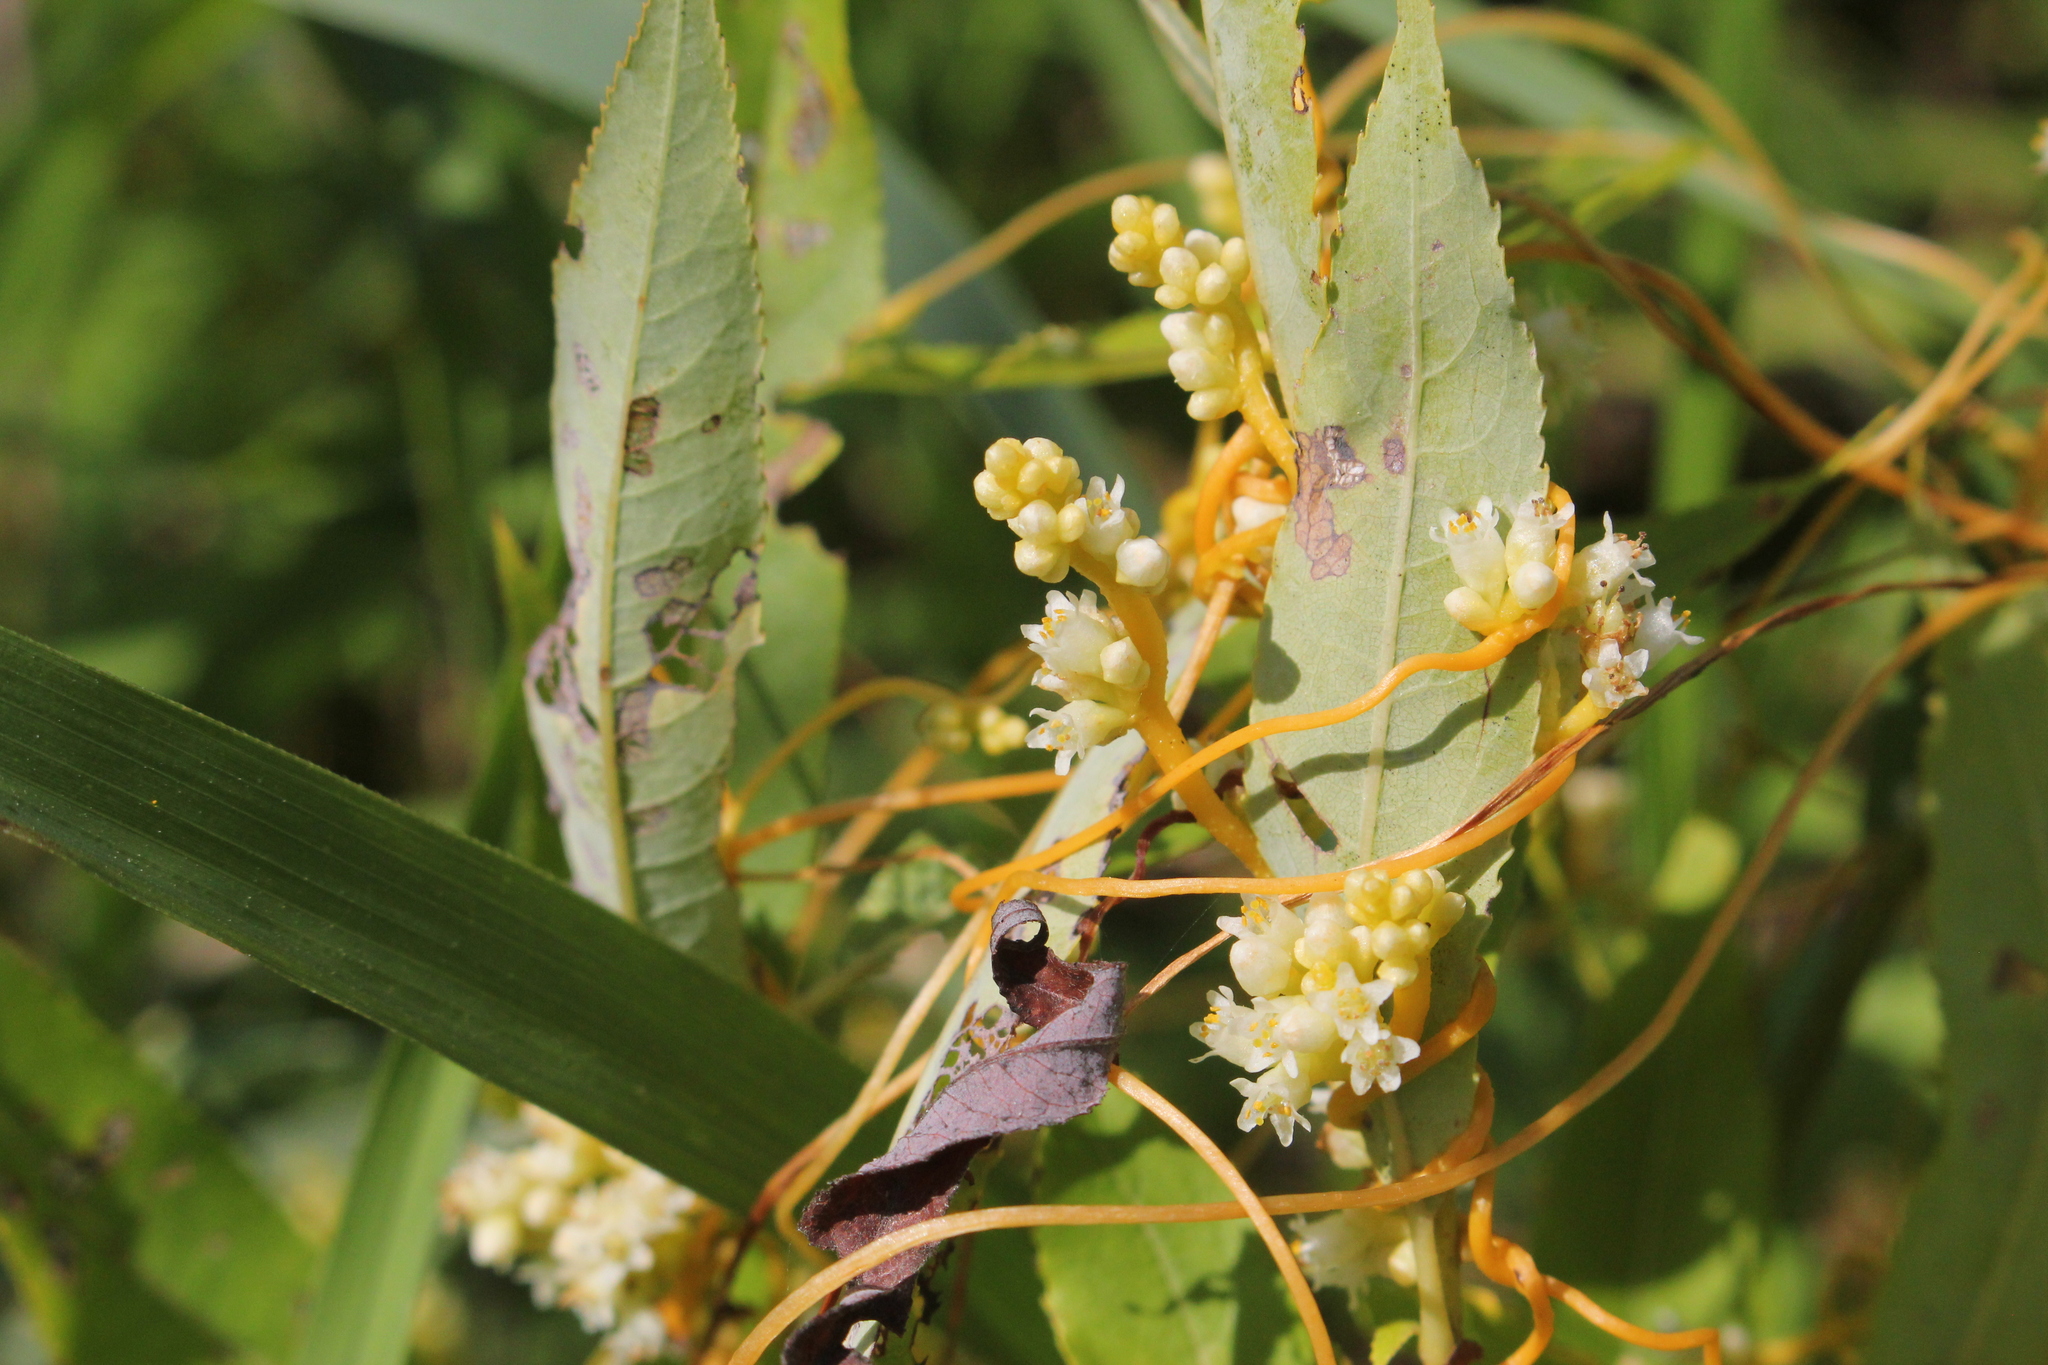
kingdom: Plantae
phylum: Tracheophyta
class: Magnoliopsida
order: Solanales
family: Convolvulaceae
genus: Cuscuta
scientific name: Cuscuta gronovii
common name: Common dodder
